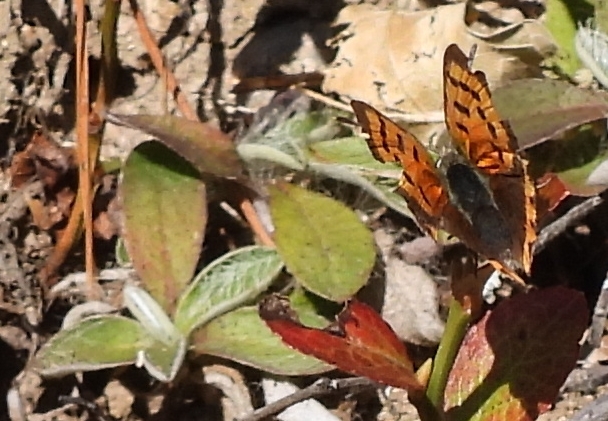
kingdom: Animalia
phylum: Arthropoda
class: Insecta
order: Lepidoptera
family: Lycaenidae
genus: Lycaena
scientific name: Lycaena phlaeas
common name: Small copper
